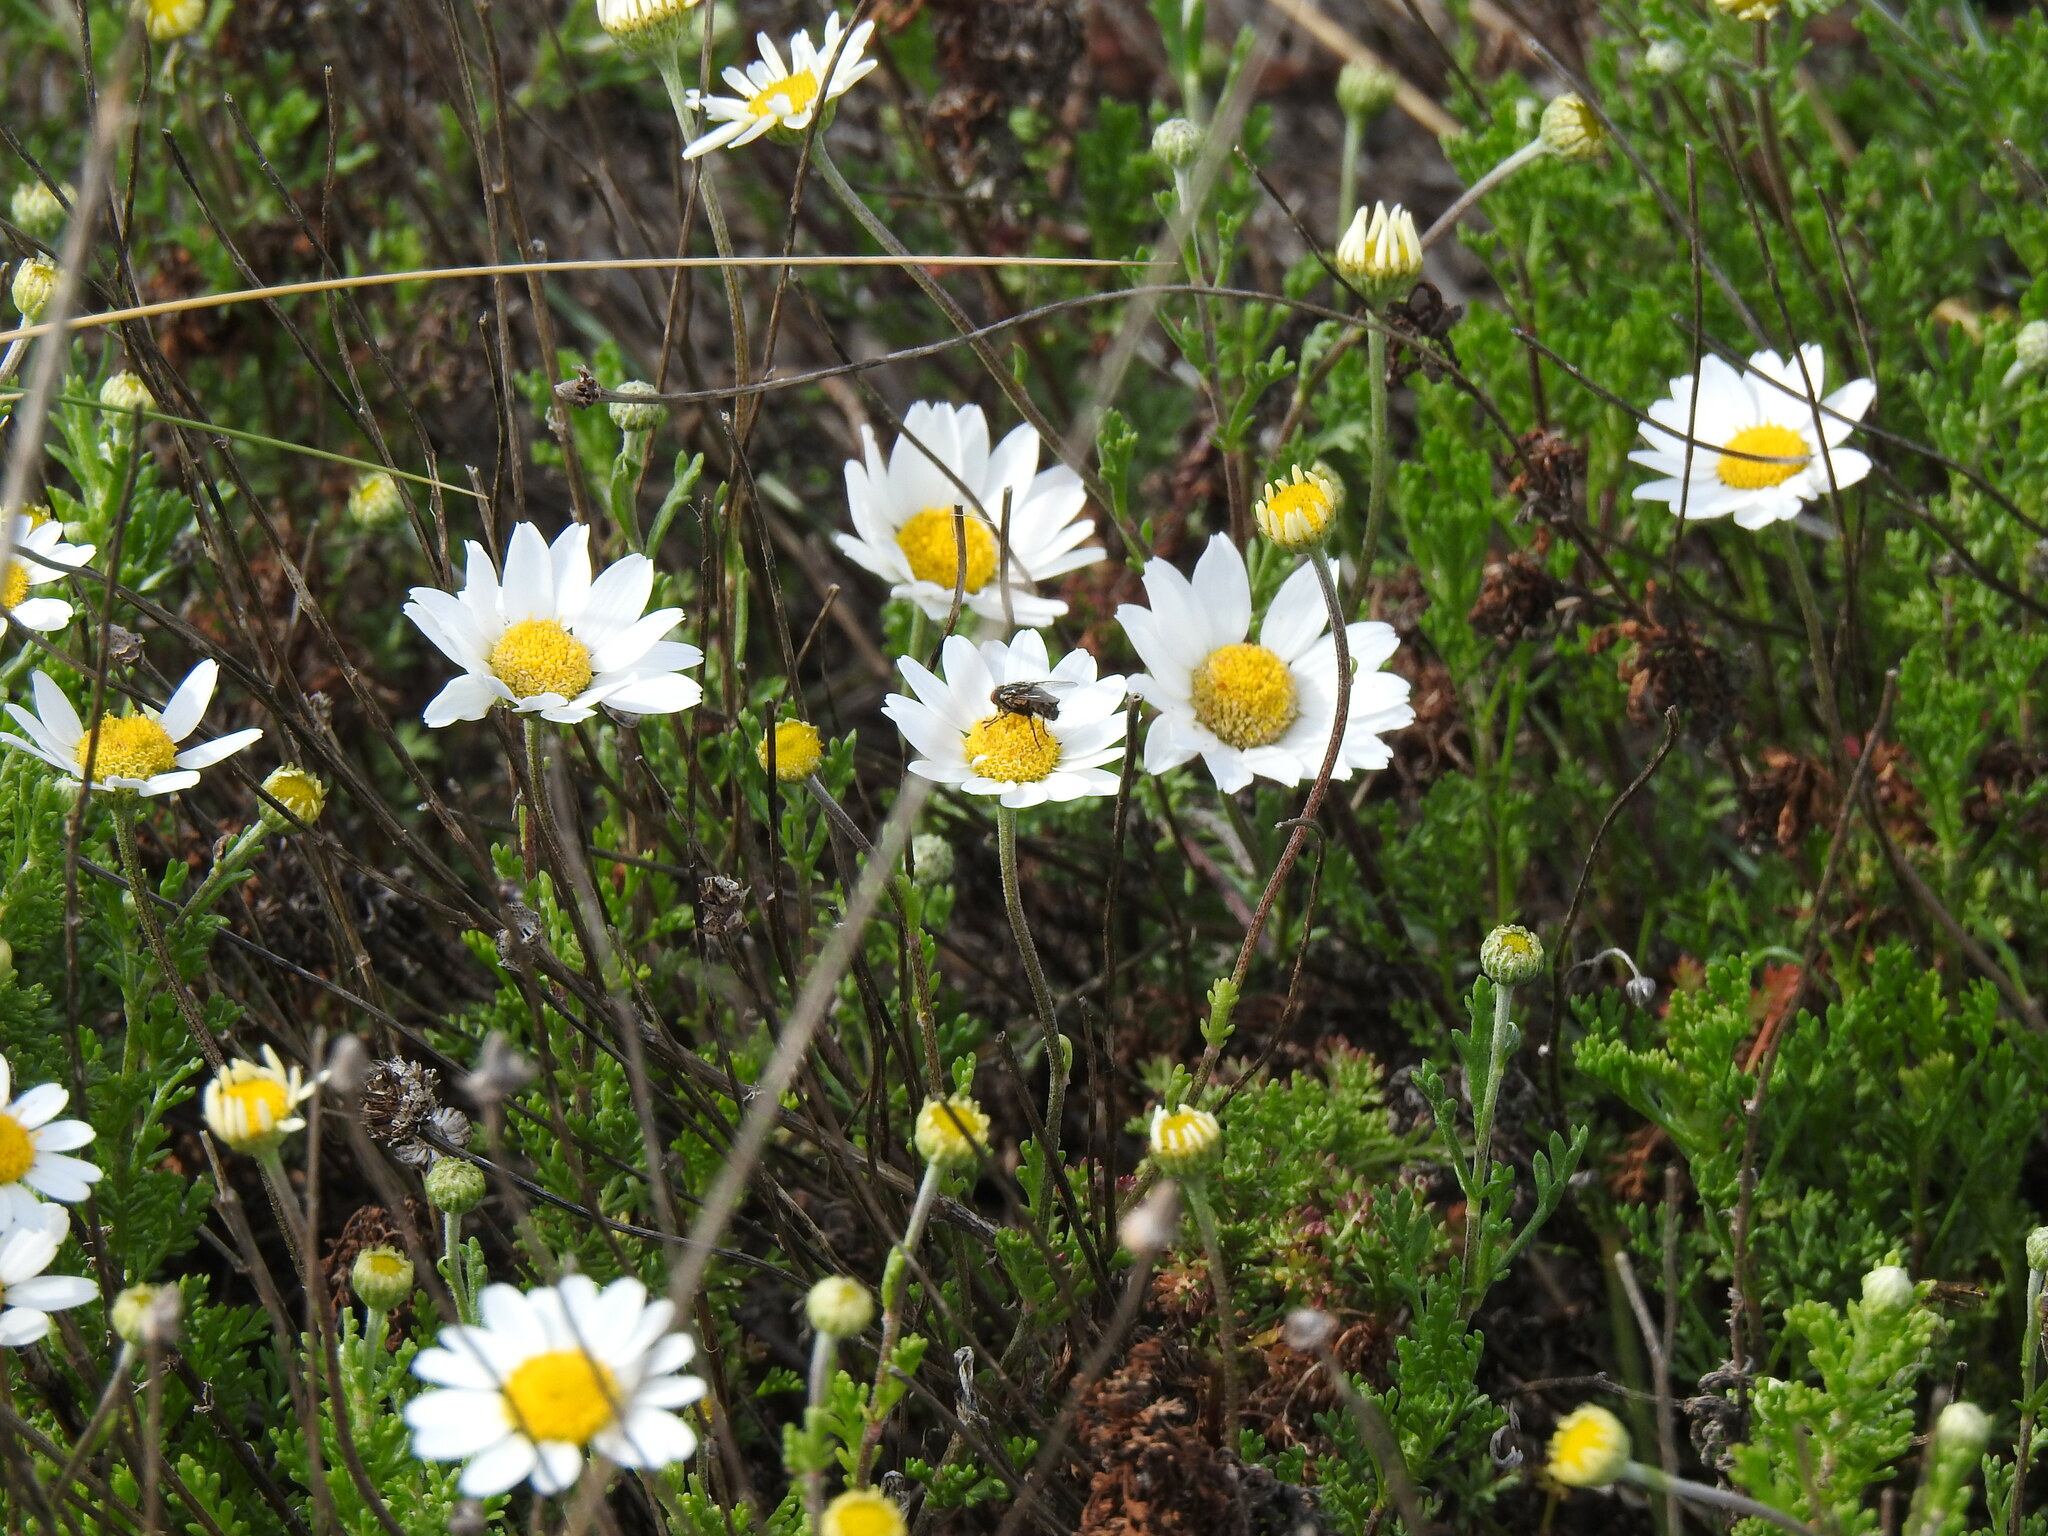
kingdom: Plantae
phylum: Tracheophyta
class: Magnoliopsida
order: Asterales
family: Asteraceae
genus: Anthemis
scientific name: Anthemis maritima
